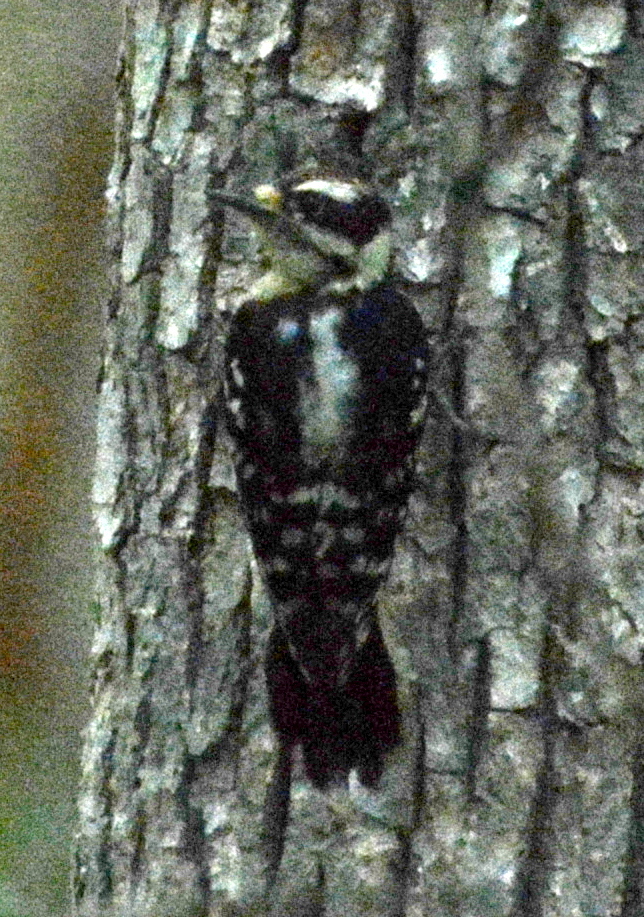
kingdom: Animalia
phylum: Chordata
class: Aves
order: Piciformes
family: Picidae
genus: Dryobates
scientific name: Dryobates pubescens
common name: Downy woodpecker
